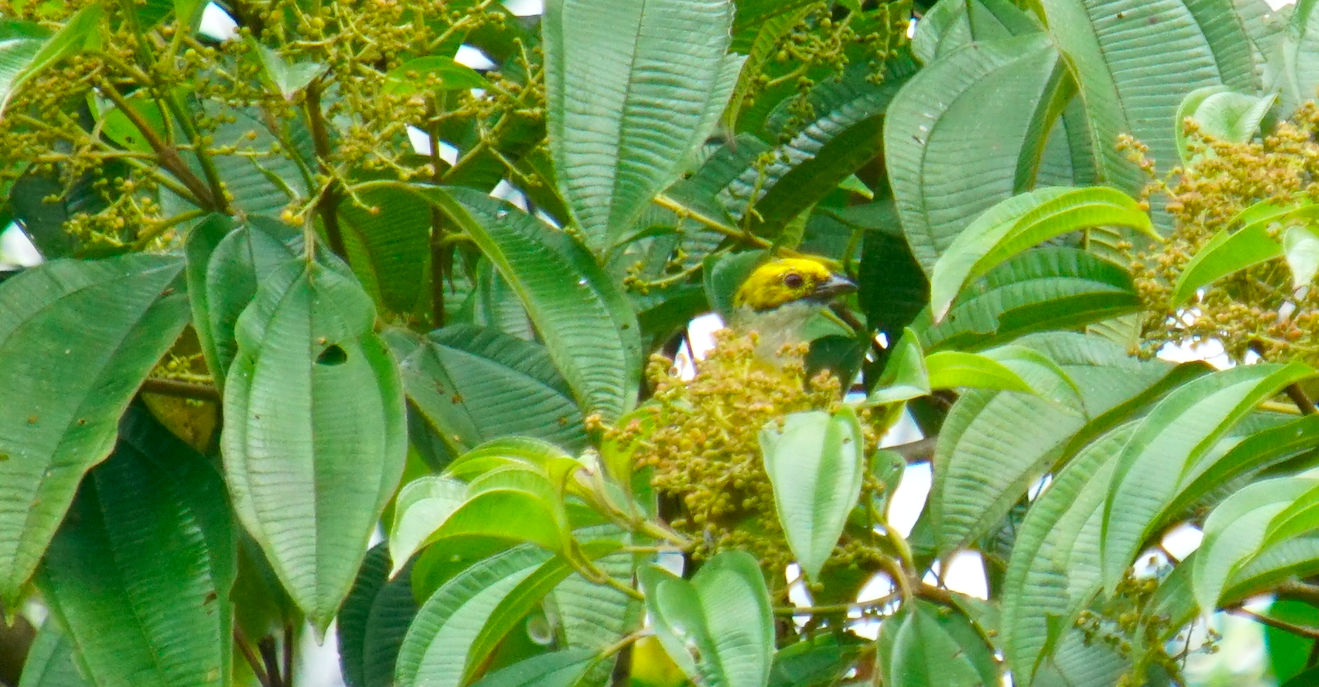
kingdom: Animalia
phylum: Chordata
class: Aves
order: Passeriformes
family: Thraupidae
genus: Tangara
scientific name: Tangara icterocephala
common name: Silver-throated tanager
